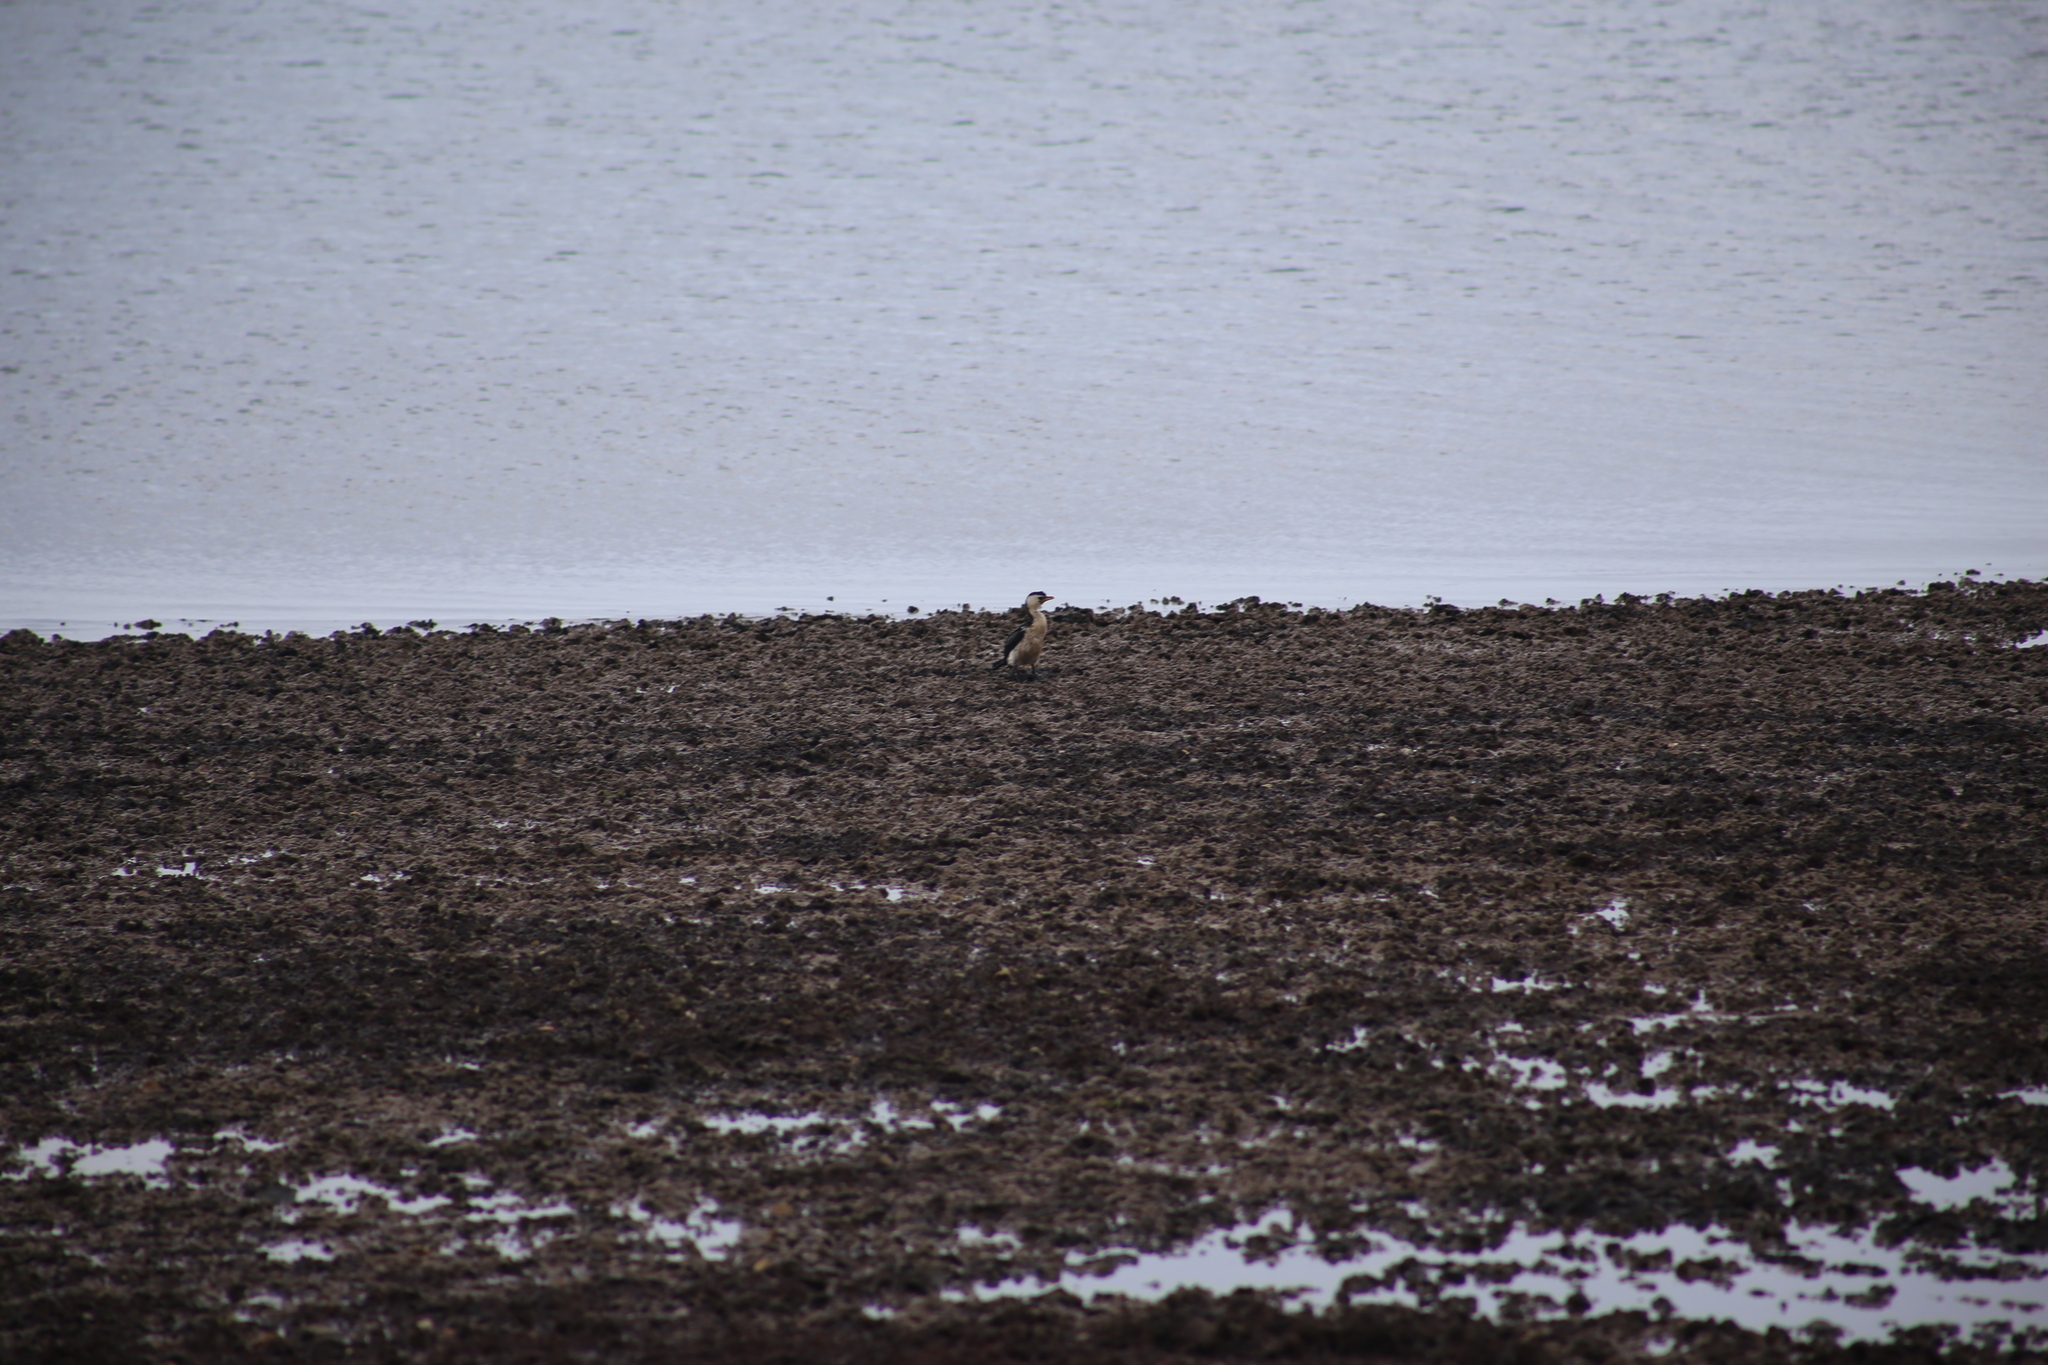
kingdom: Animalia
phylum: Chordata
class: Aves
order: Suliformes
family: Phalacrocoracidae
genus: Microcarbo
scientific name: Microcarbo melanoleucos
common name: Little pied cormorant
